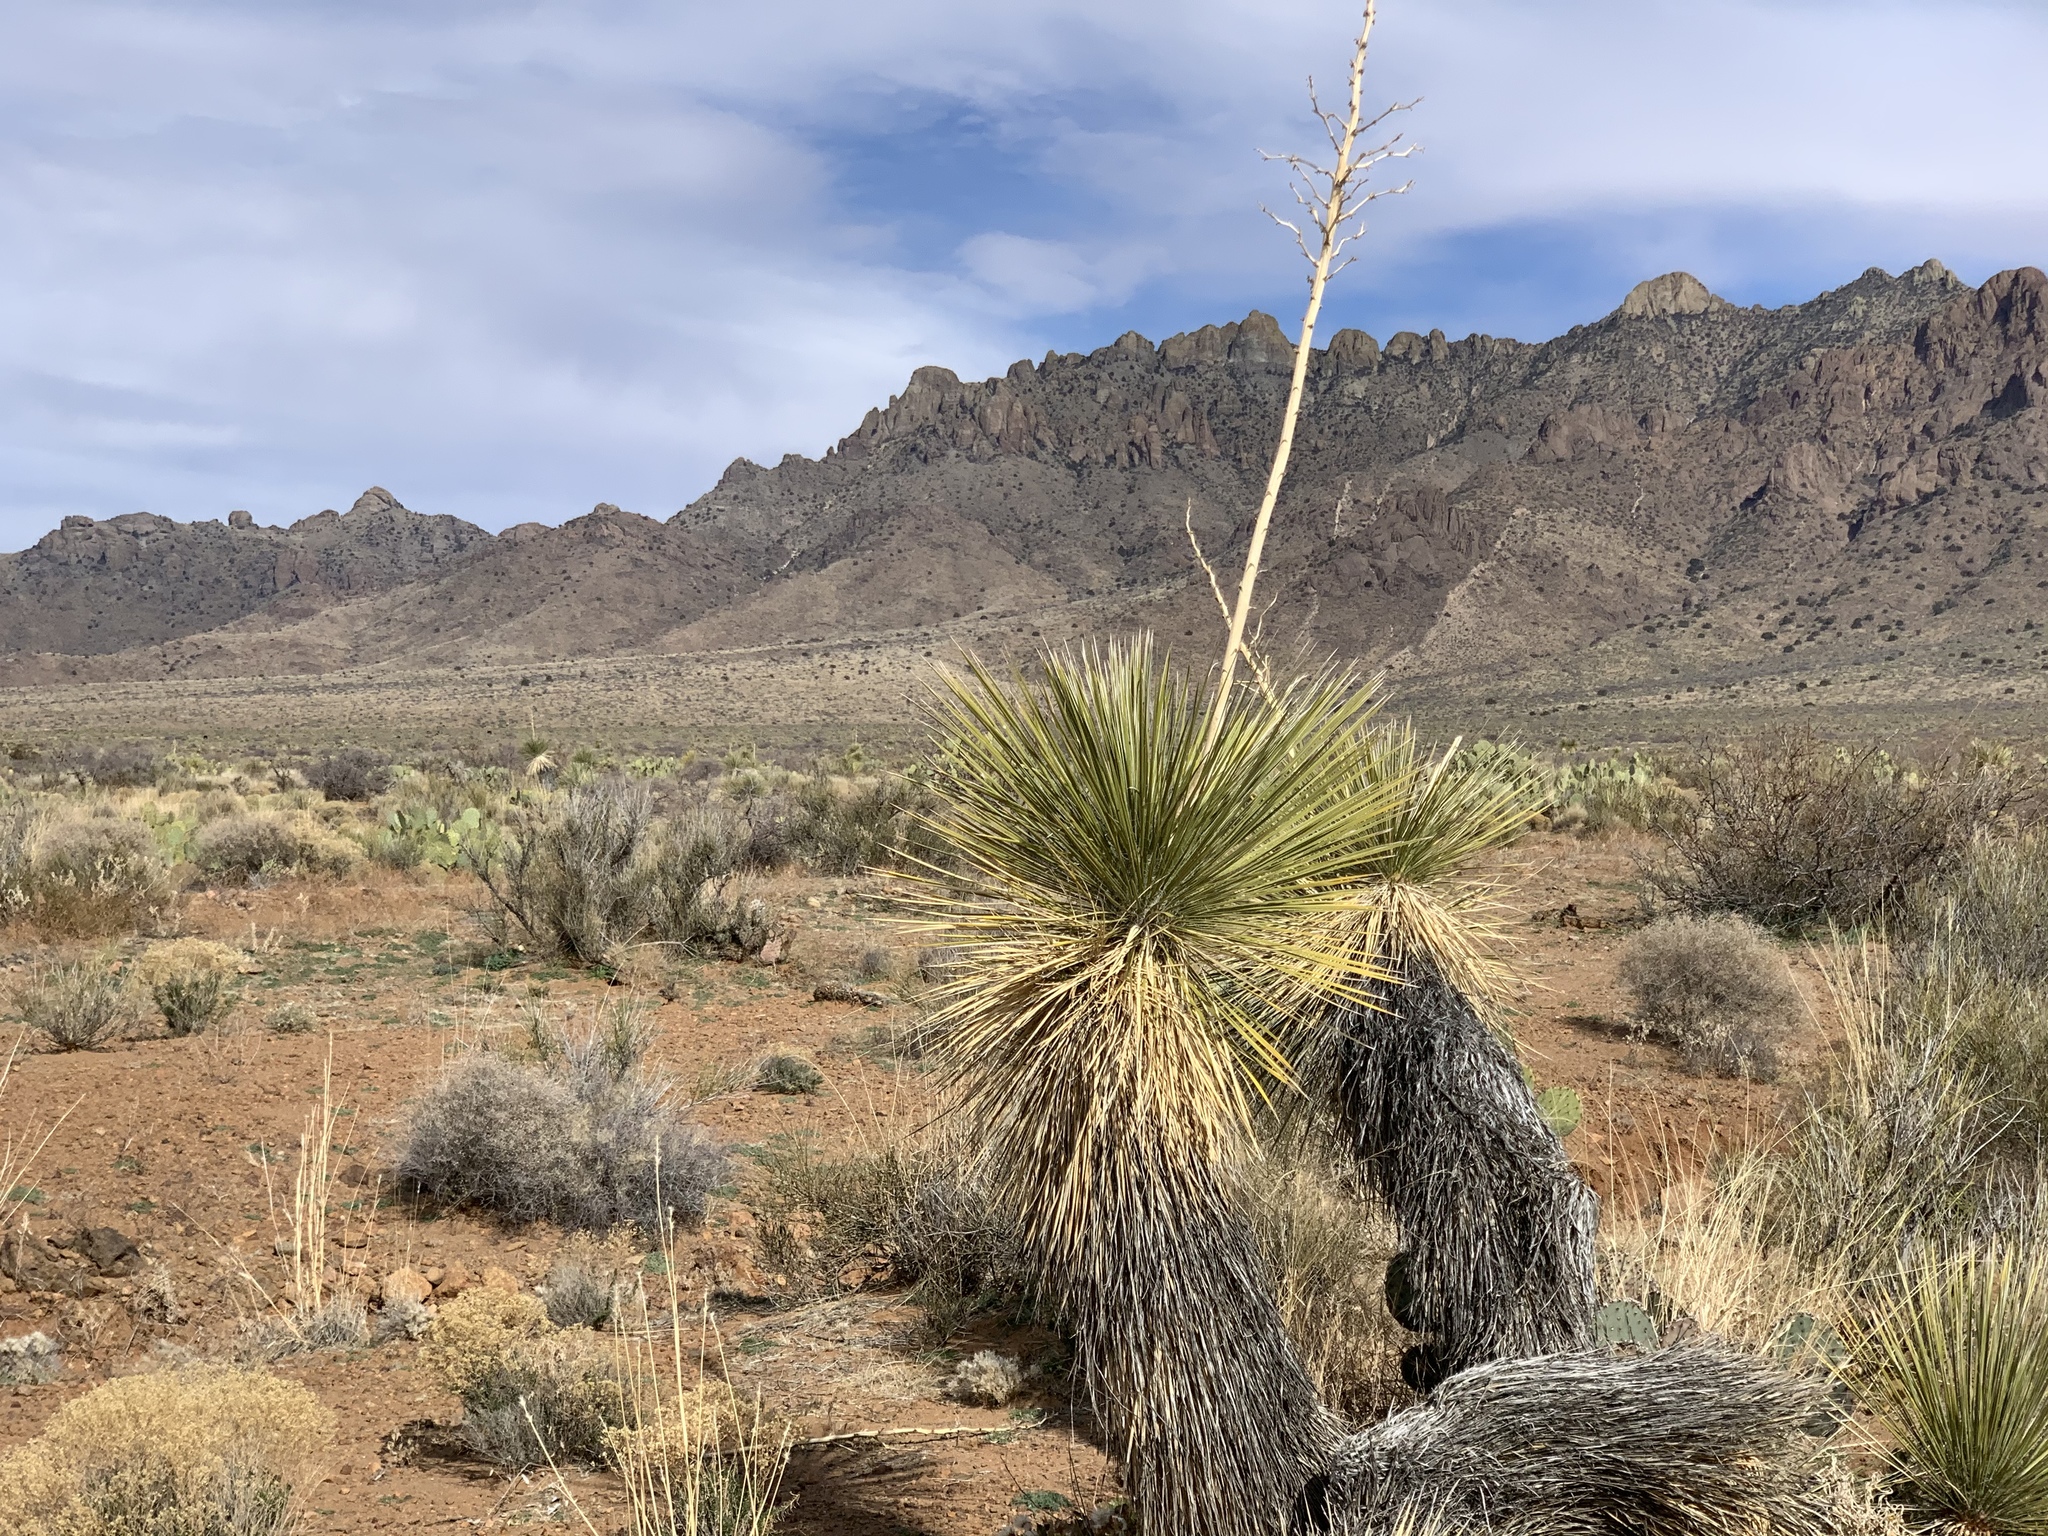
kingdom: Plantae
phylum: Tracheophyta
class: Liliopsida
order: Asparagales
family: Asparagaceae
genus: Yucca
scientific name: Yucca elata
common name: Palmella
